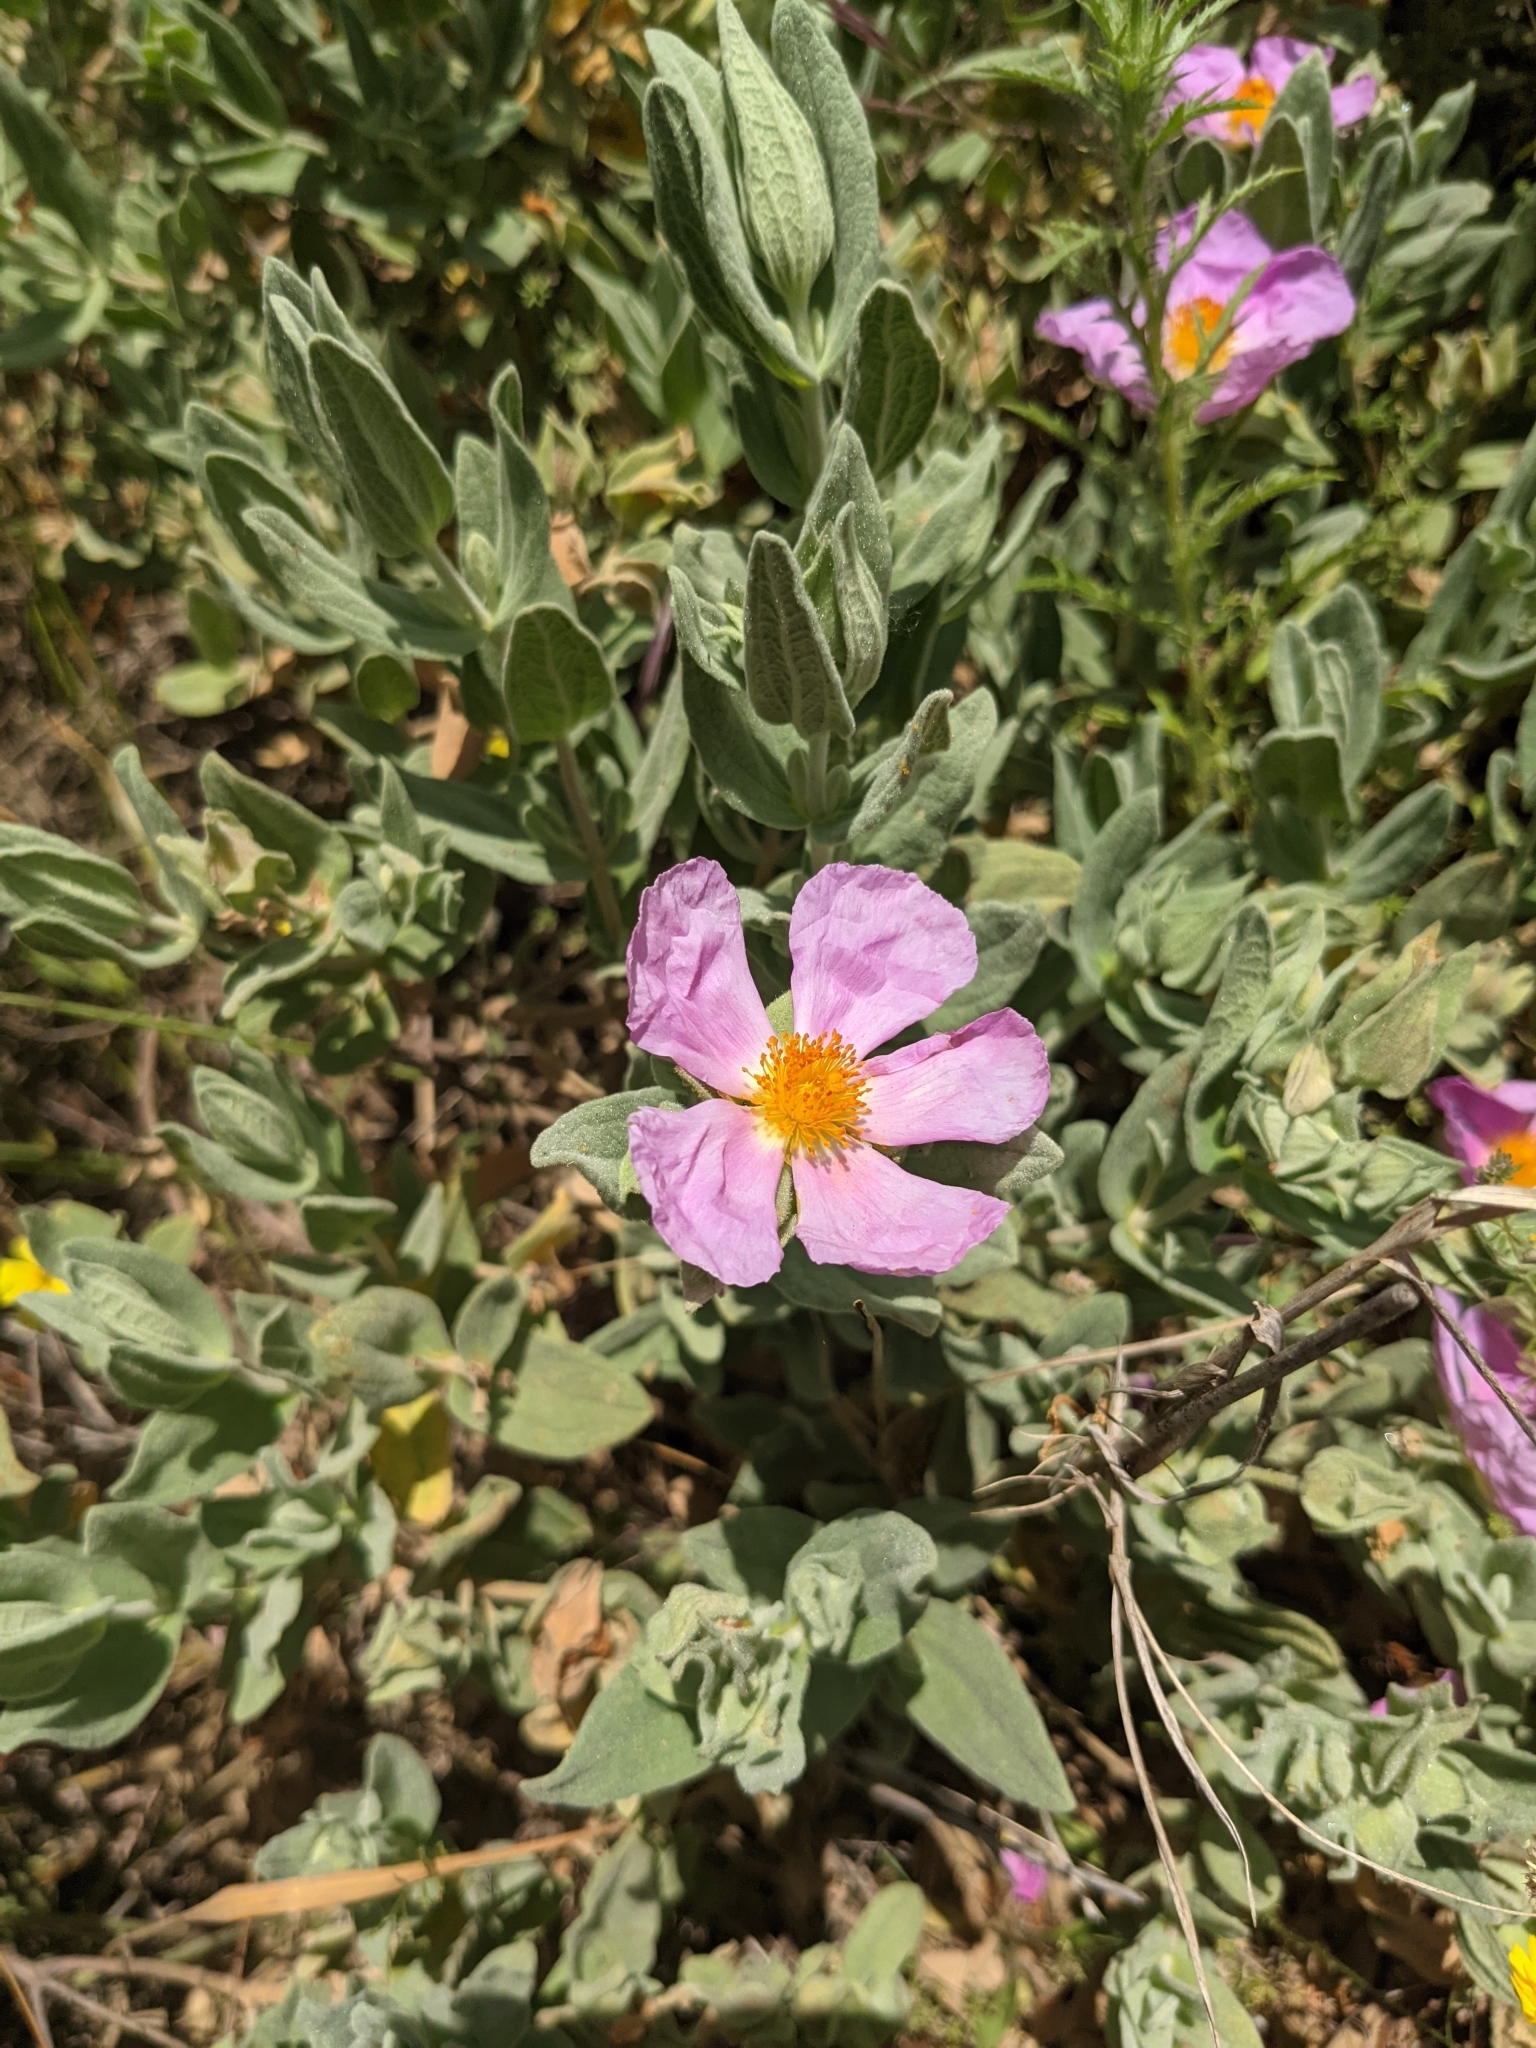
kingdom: Plantae
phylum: Tracheophyta
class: Magnoliopsida
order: Malvales
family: Cistaceae
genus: Cistus
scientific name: Cistus albidus
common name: White-leaf rock-rose
